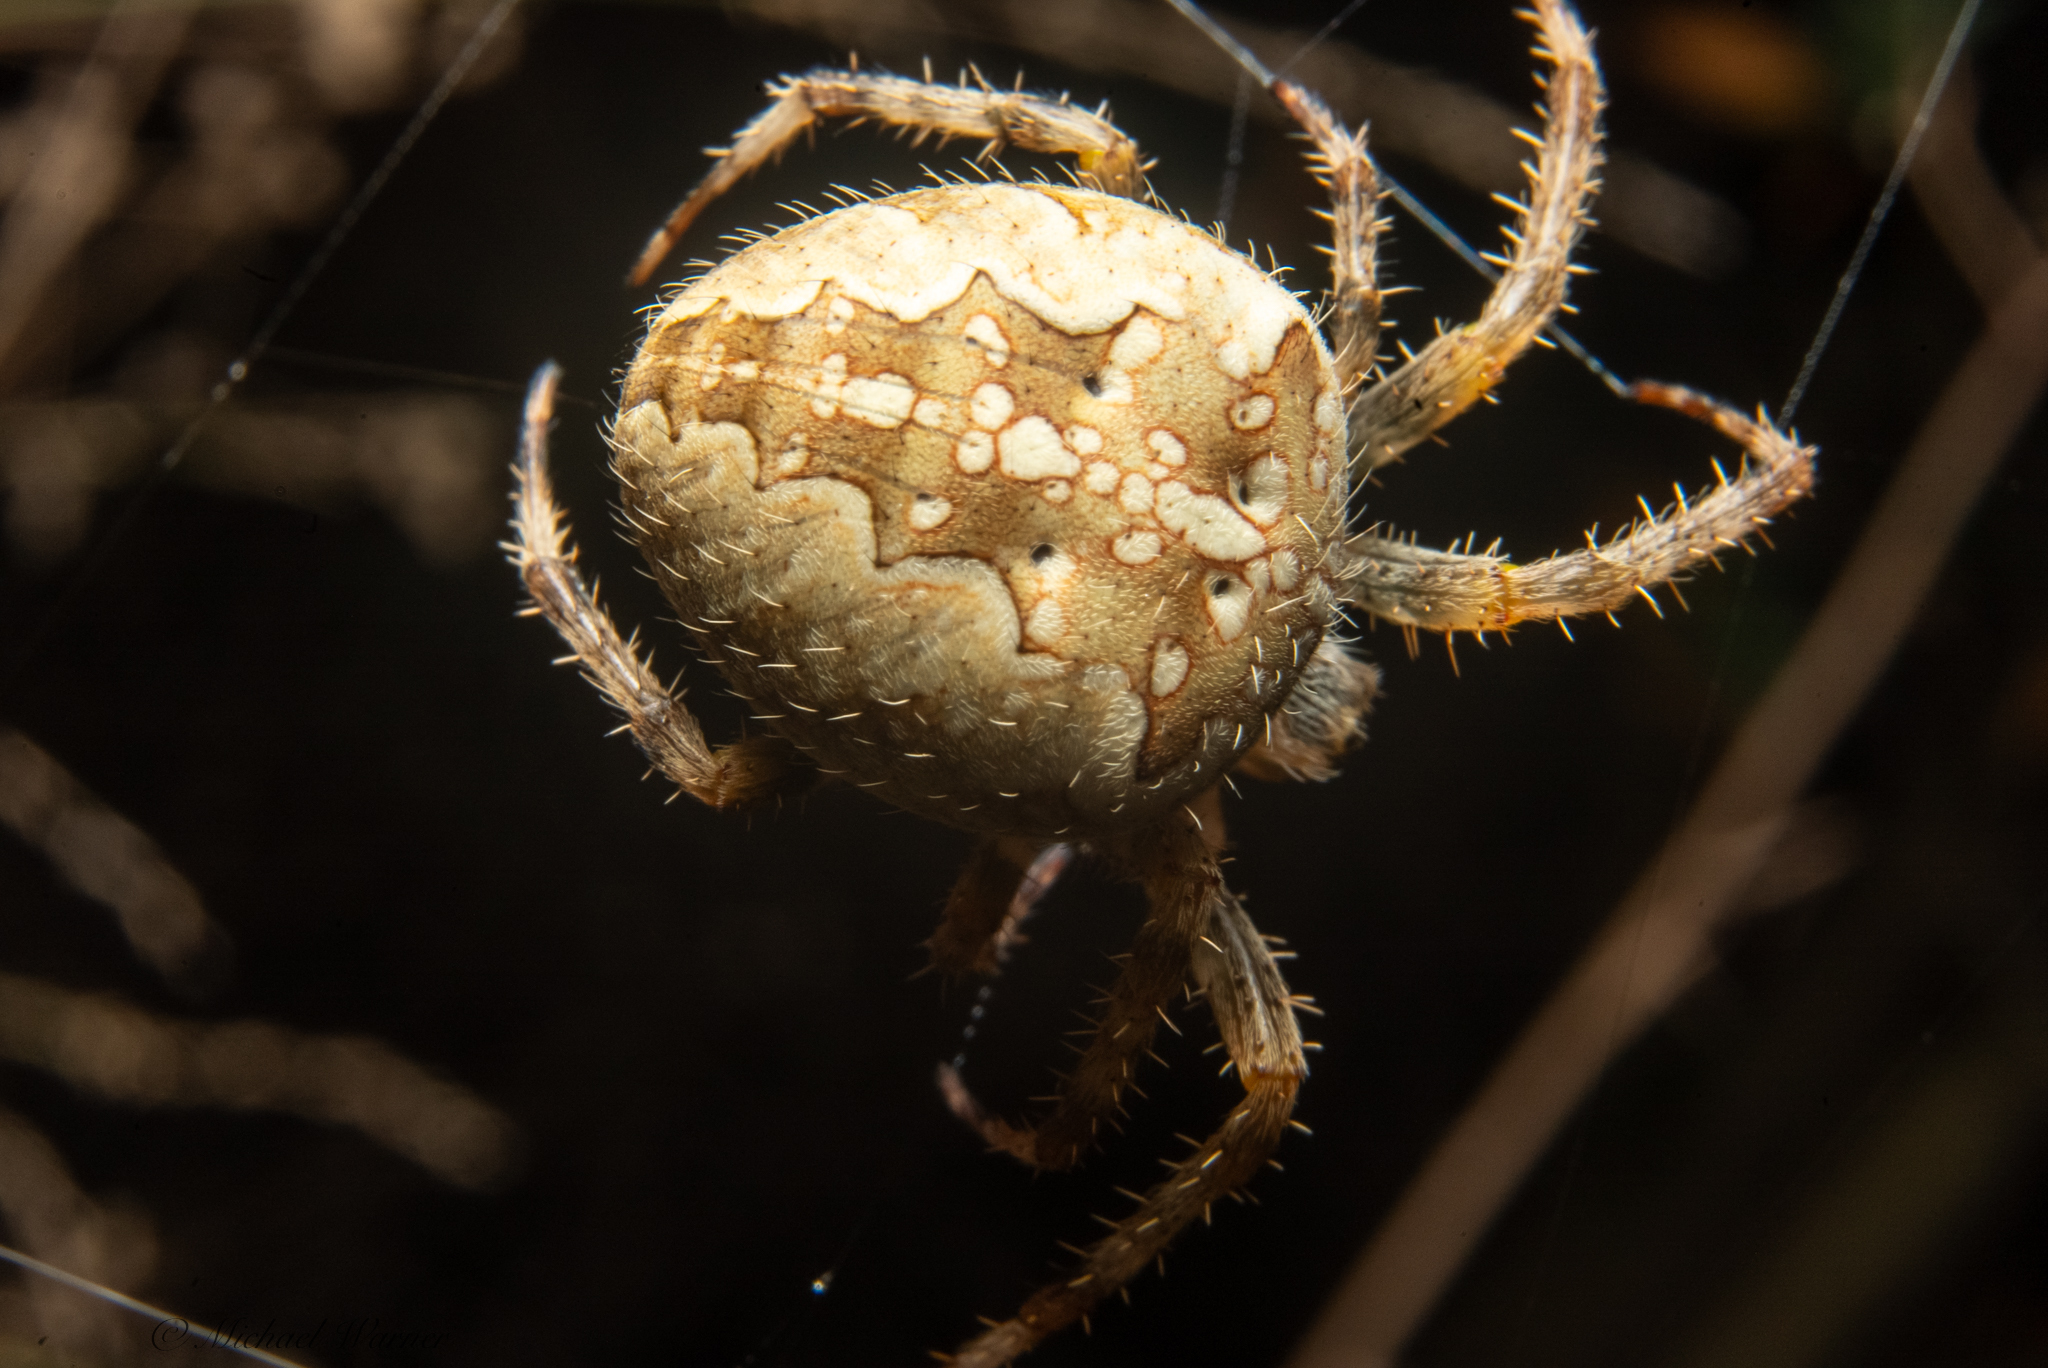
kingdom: Animalia
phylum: Arthropoda
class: Arachnida
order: Araneae
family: Araneidae
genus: Araneus
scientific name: Araneus diadematus
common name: Cross orbweaver
